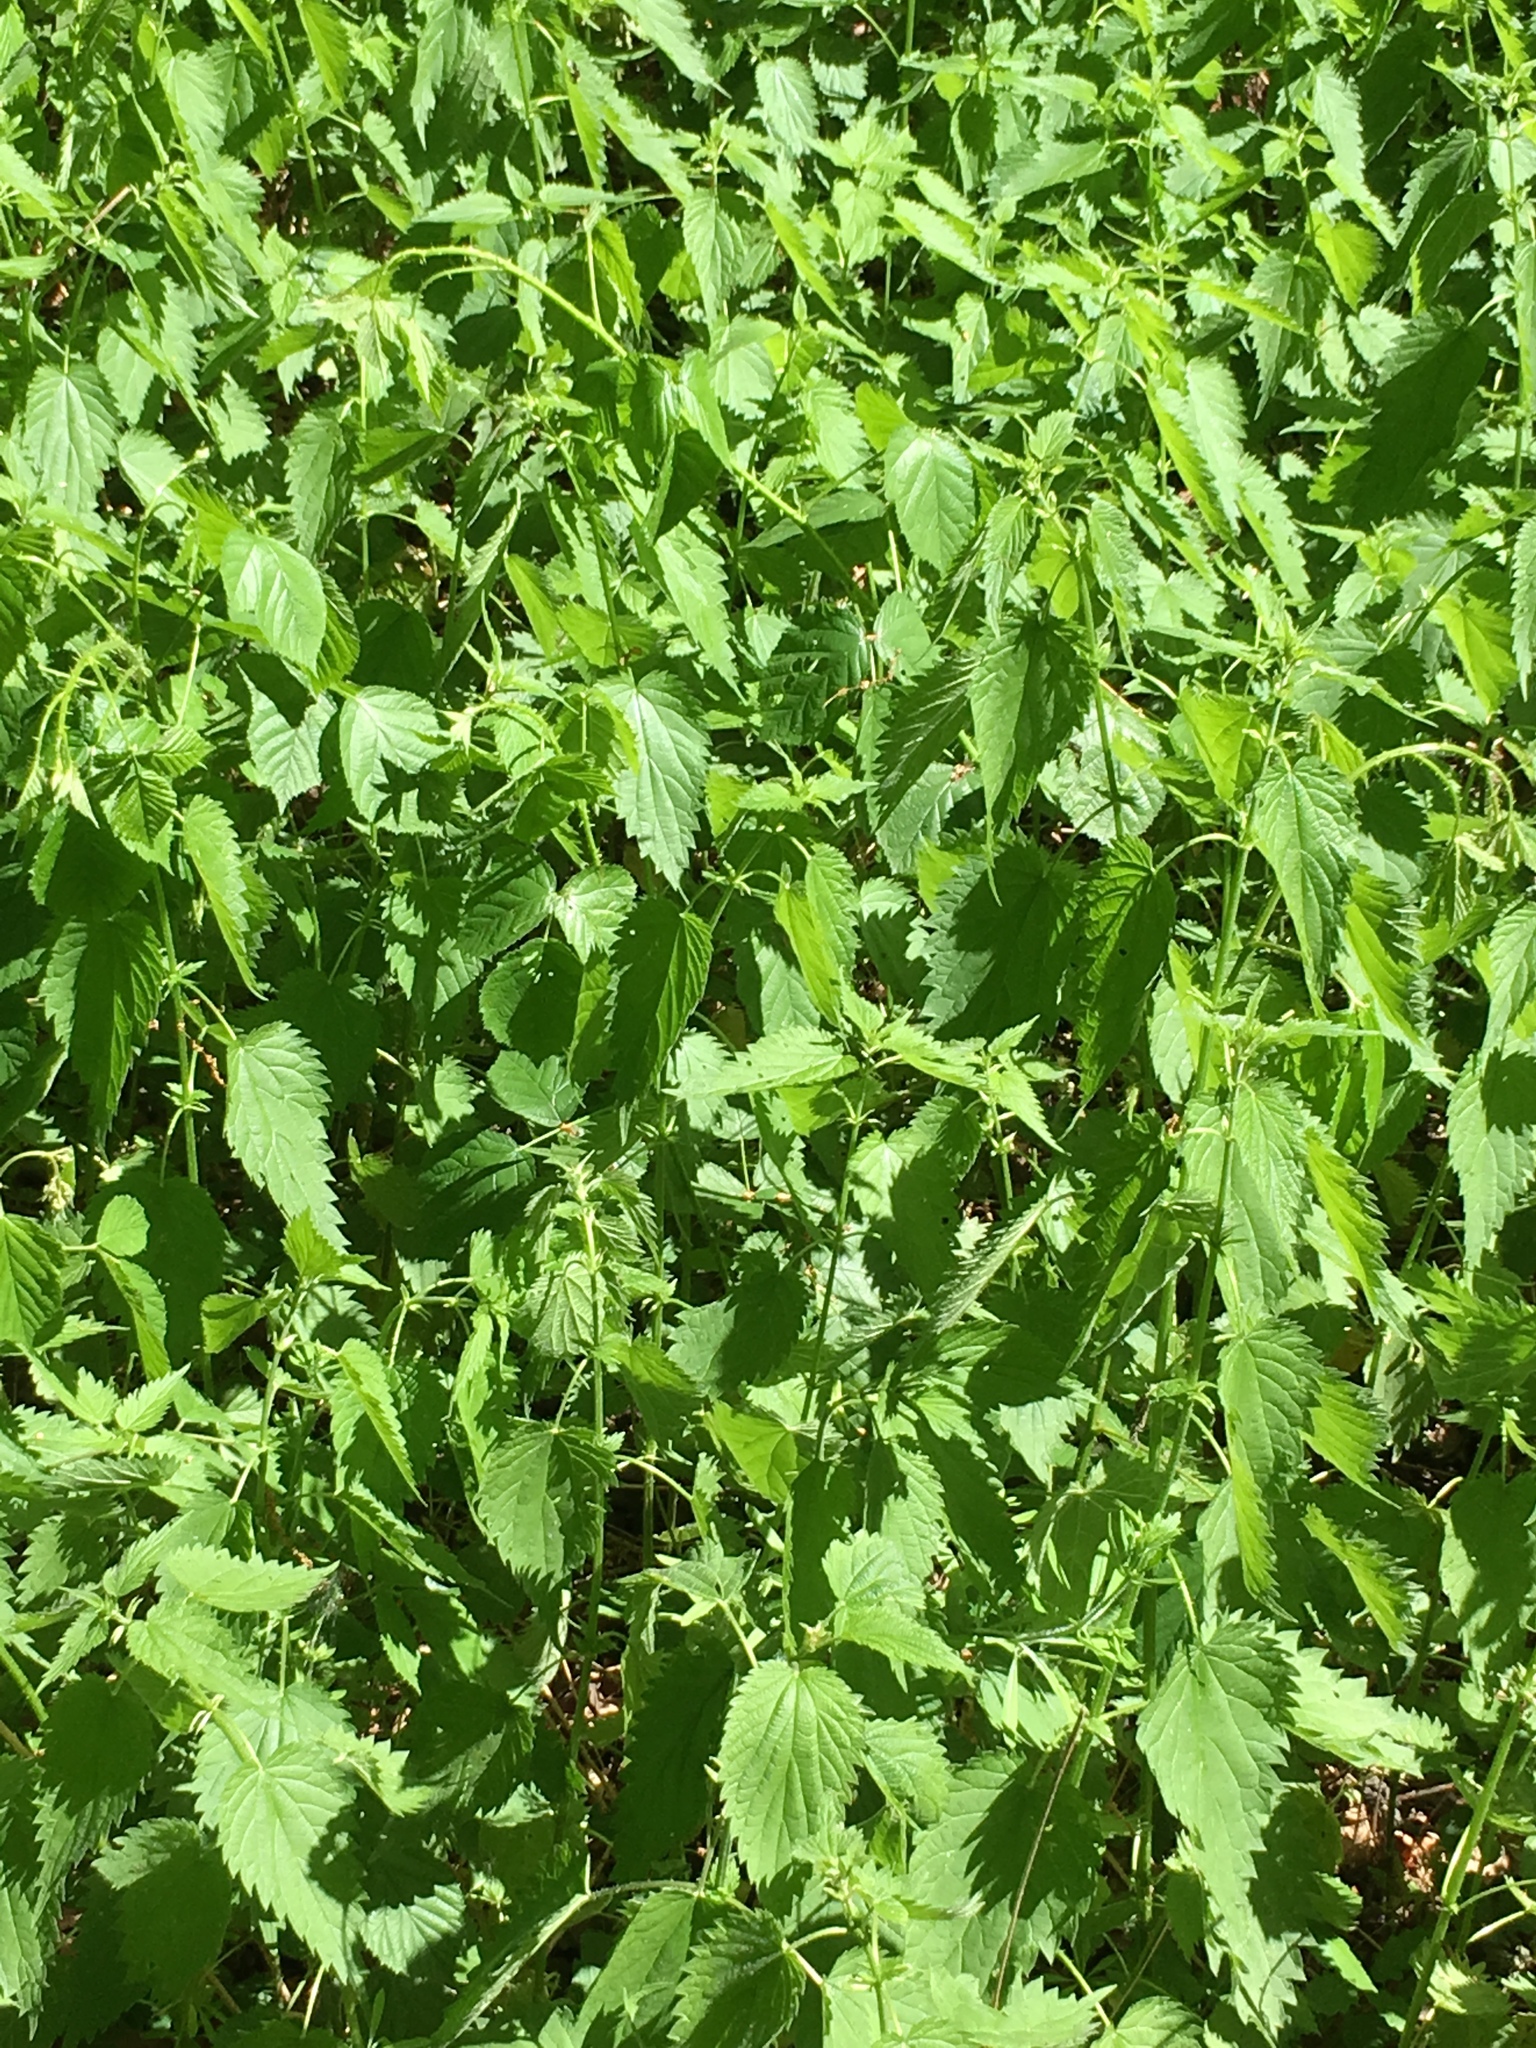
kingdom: Plantae
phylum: Tracheophyta
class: Magnoliopsida
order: Rosales
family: Urticaceae
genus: Urtica
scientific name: Urtica dioica
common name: Common nettle
